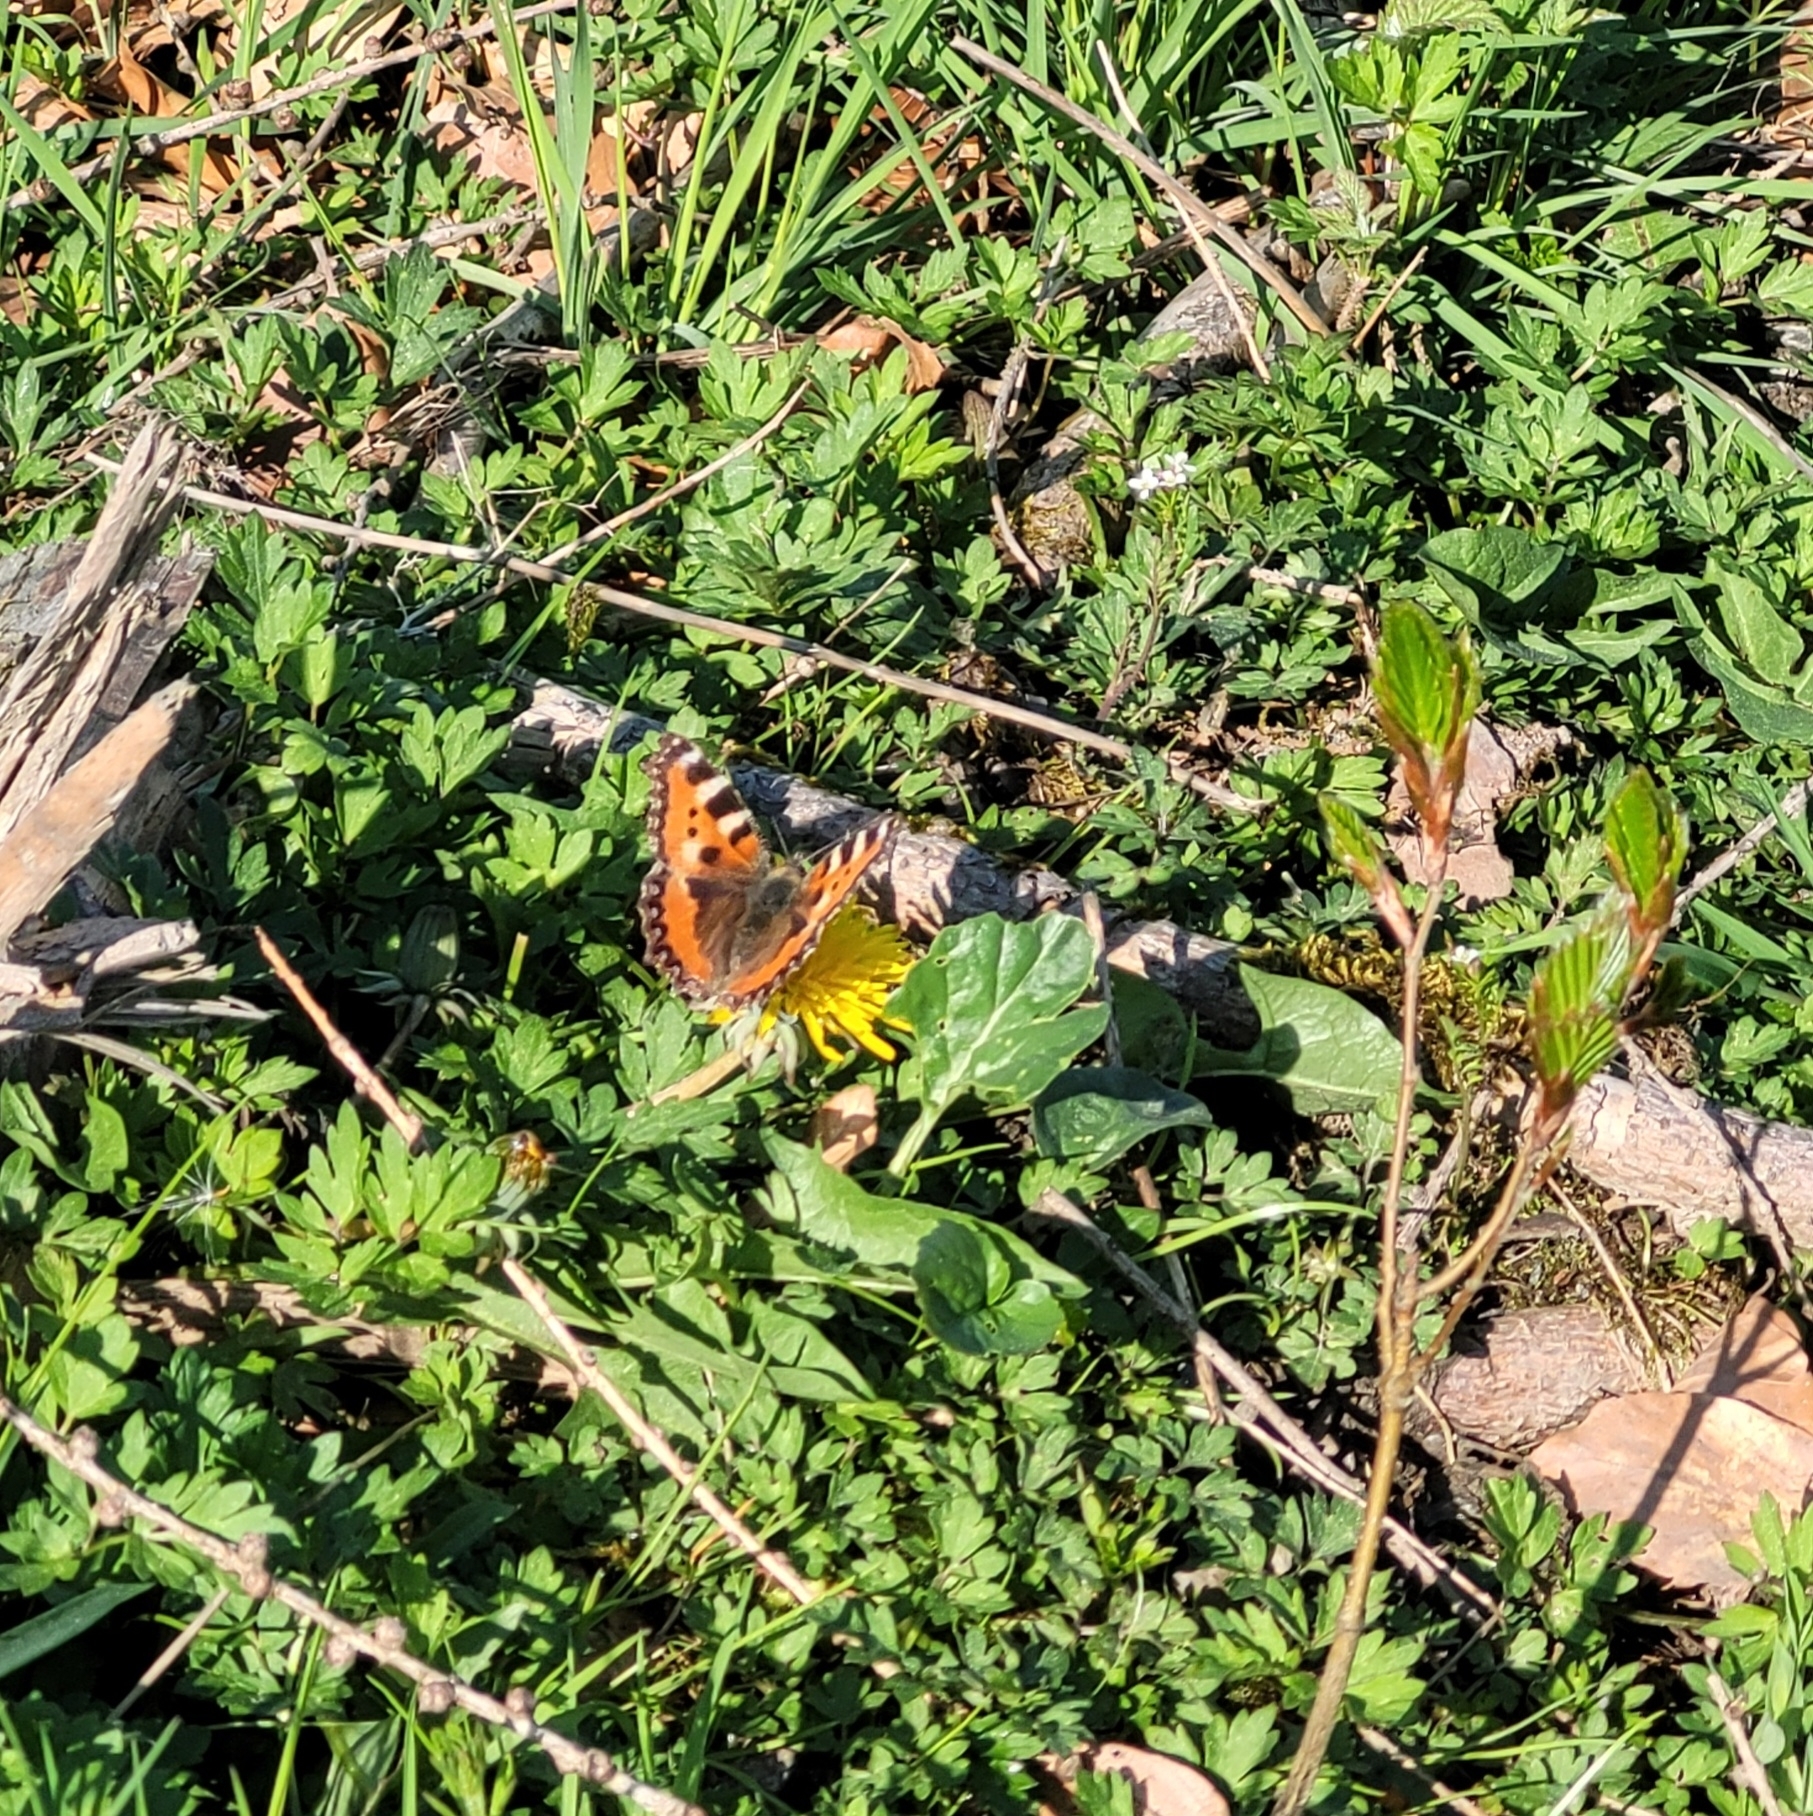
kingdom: Animalia
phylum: Arthropoda
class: Insecta
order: Lepidoptera
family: Nymphalidae
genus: Aglais
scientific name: Aglais urticae
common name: Small tortoiseshell
